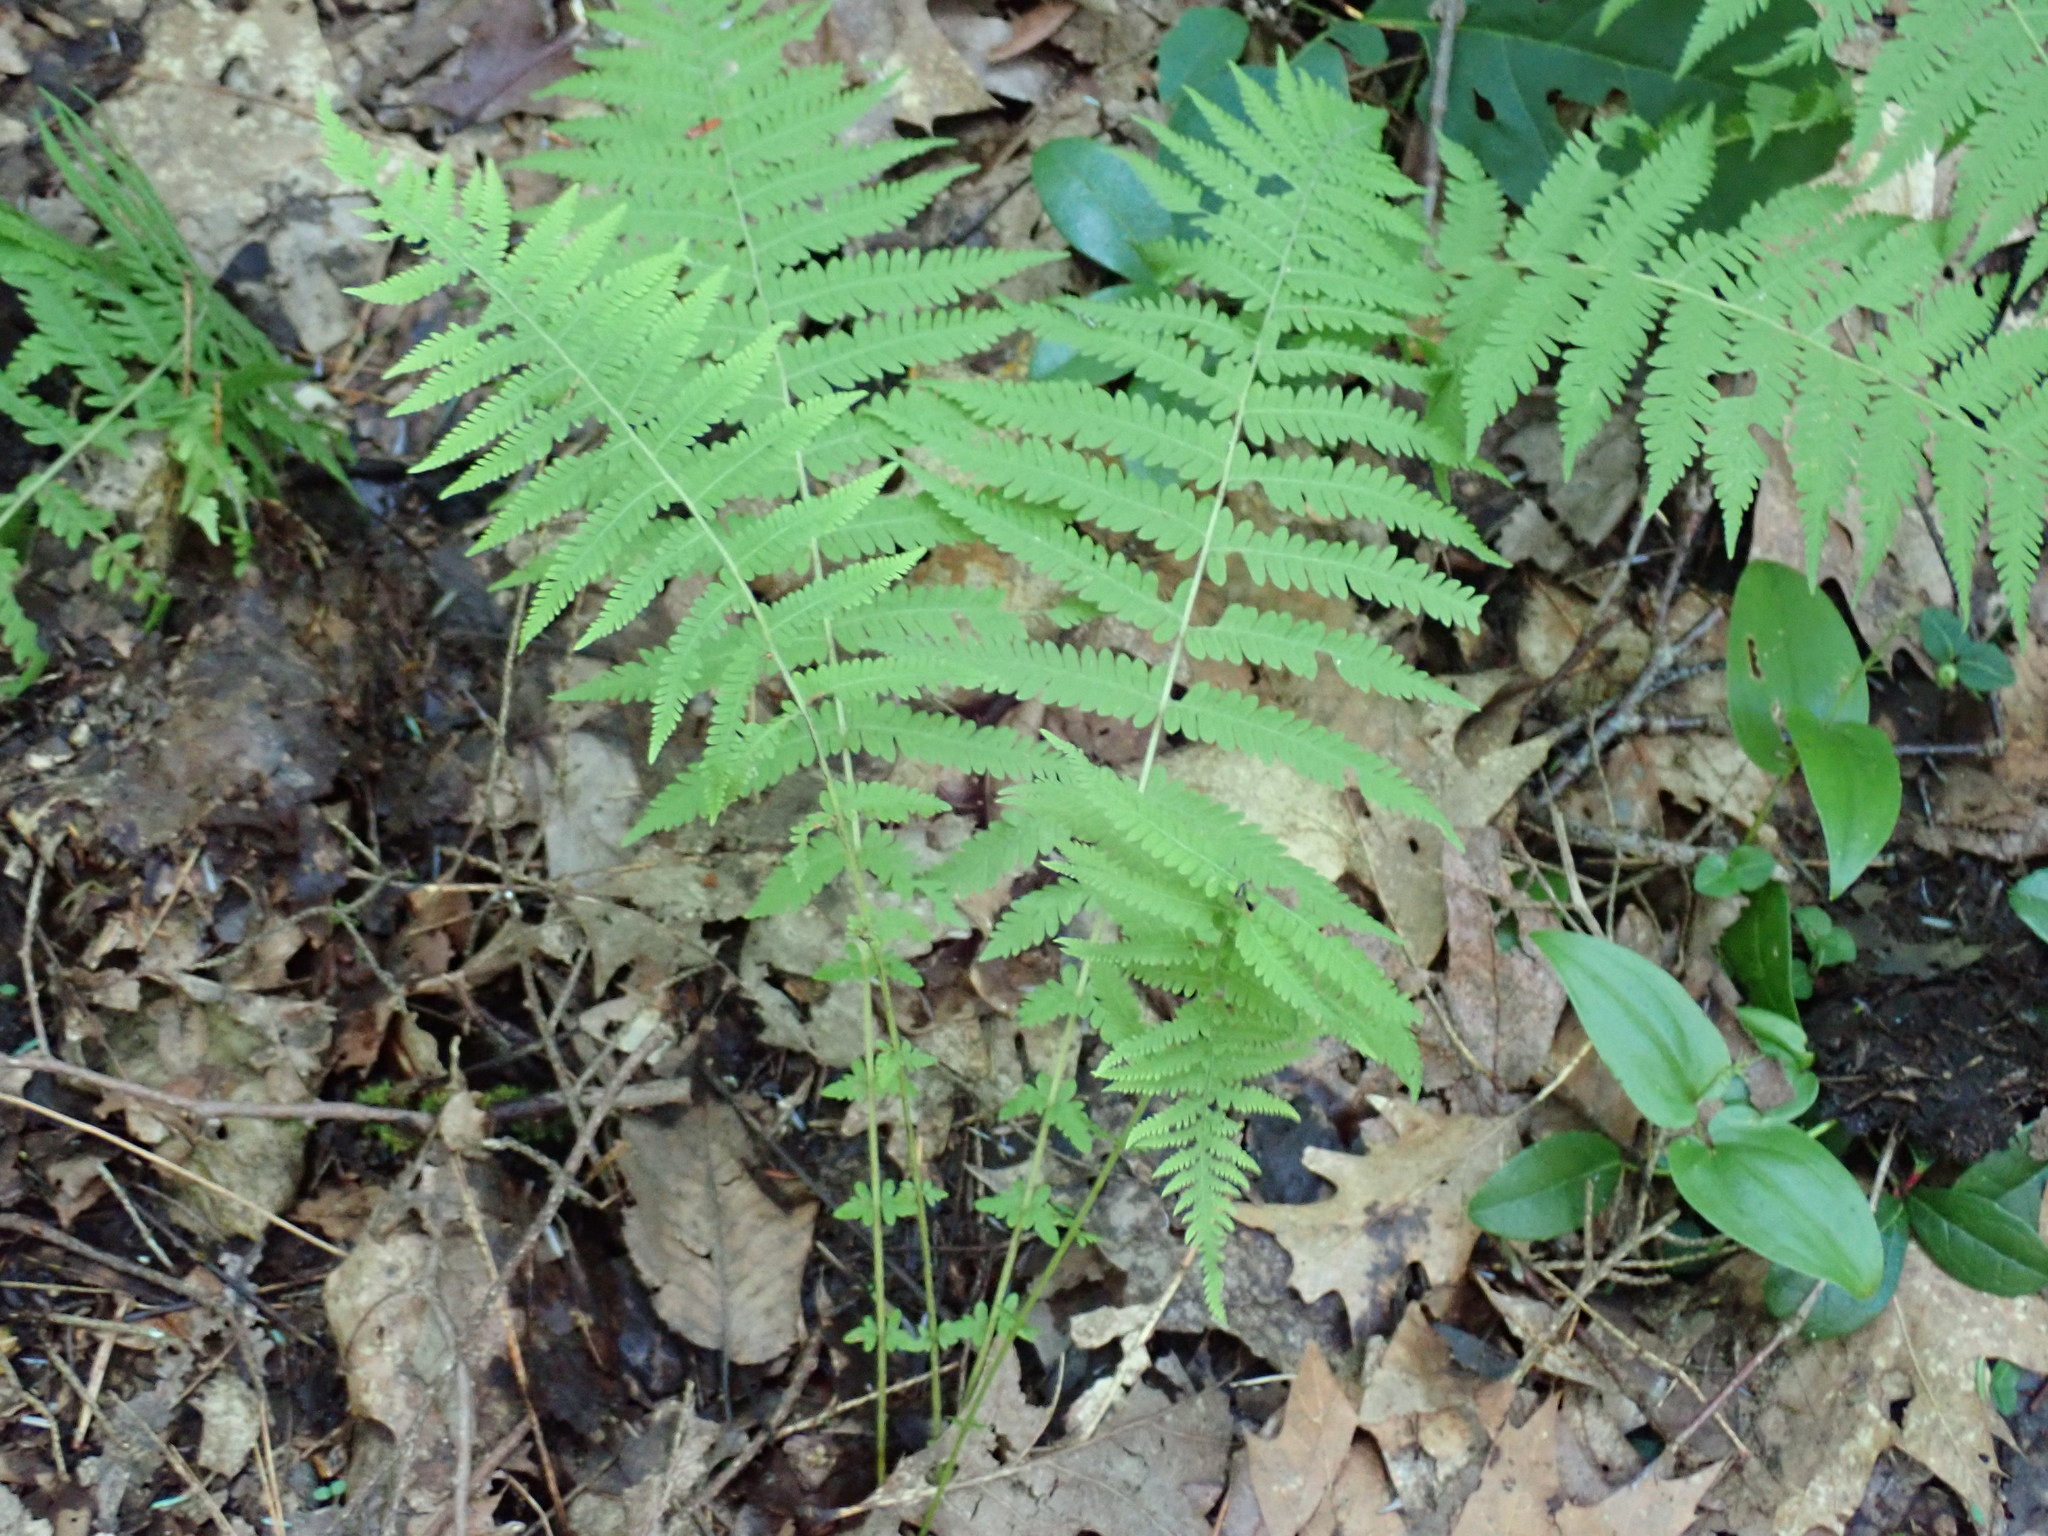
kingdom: Plantae
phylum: Tracheophyta
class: Polypodiopsida
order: Polypodiales
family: Thelypteridaceae
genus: Amauropelta
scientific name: Amauropelta noveboracensis
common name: New york fern
